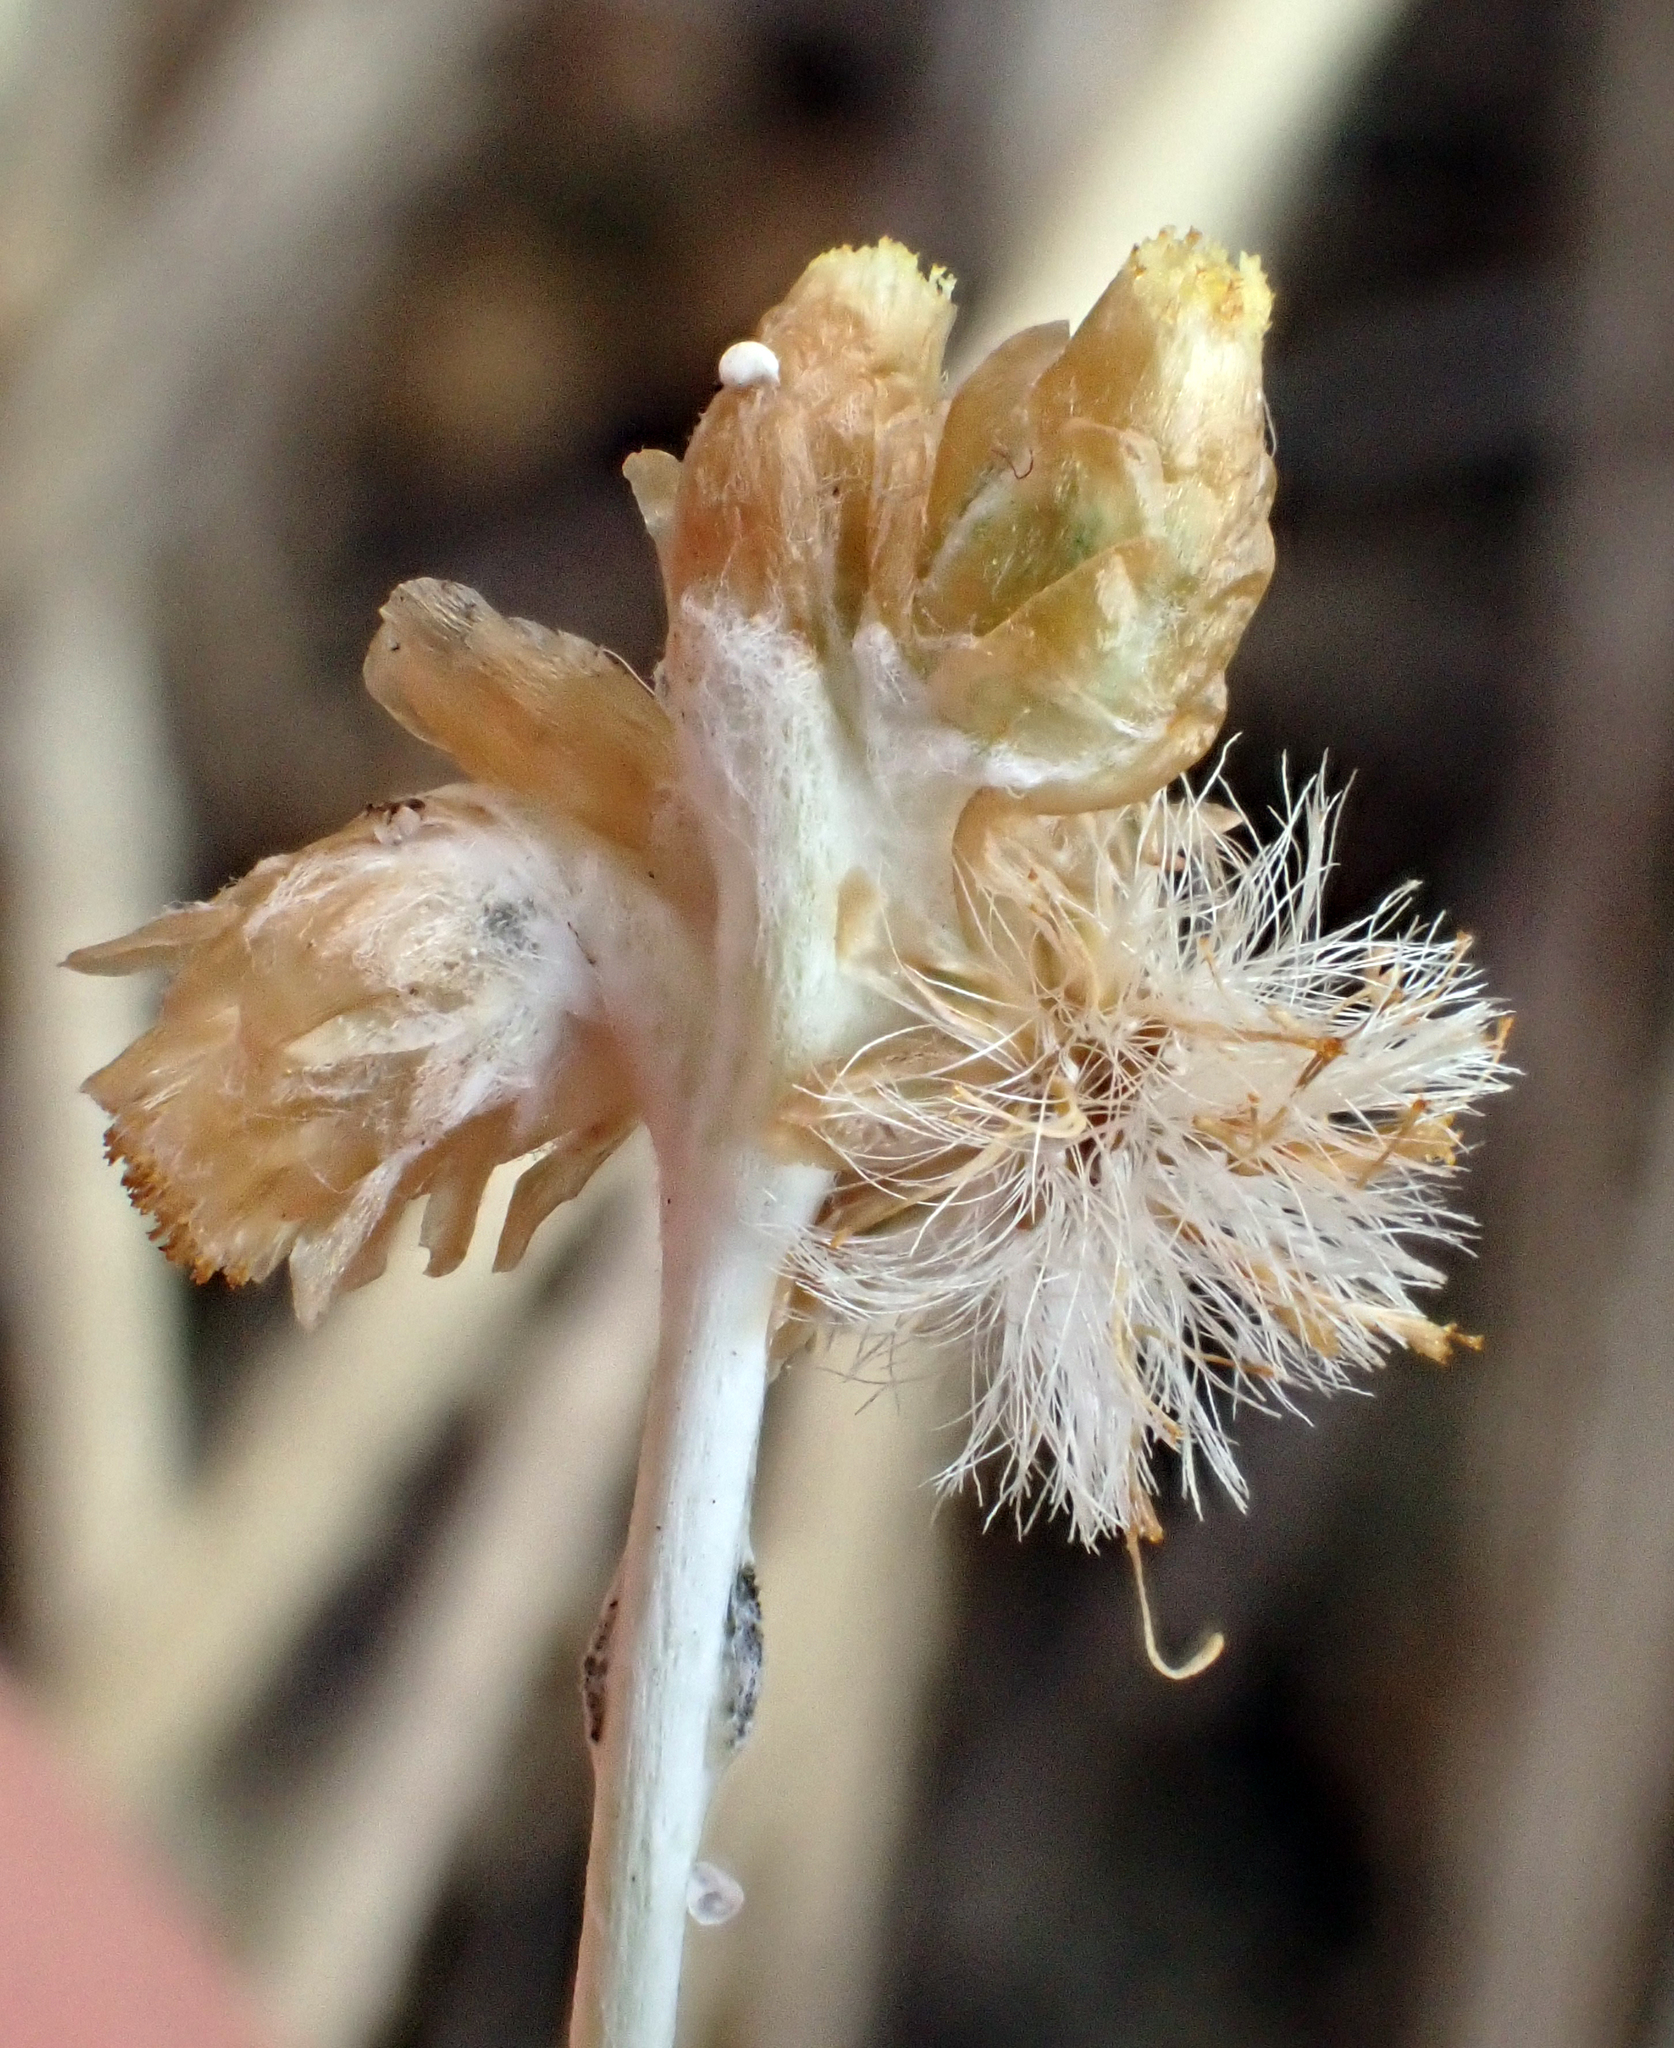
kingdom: Plantae
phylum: Tracheophyta
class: Magnoliopsida
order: Asterales
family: Asteraceae
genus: Pseudognaphalium
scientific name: Pseudognaphalium
